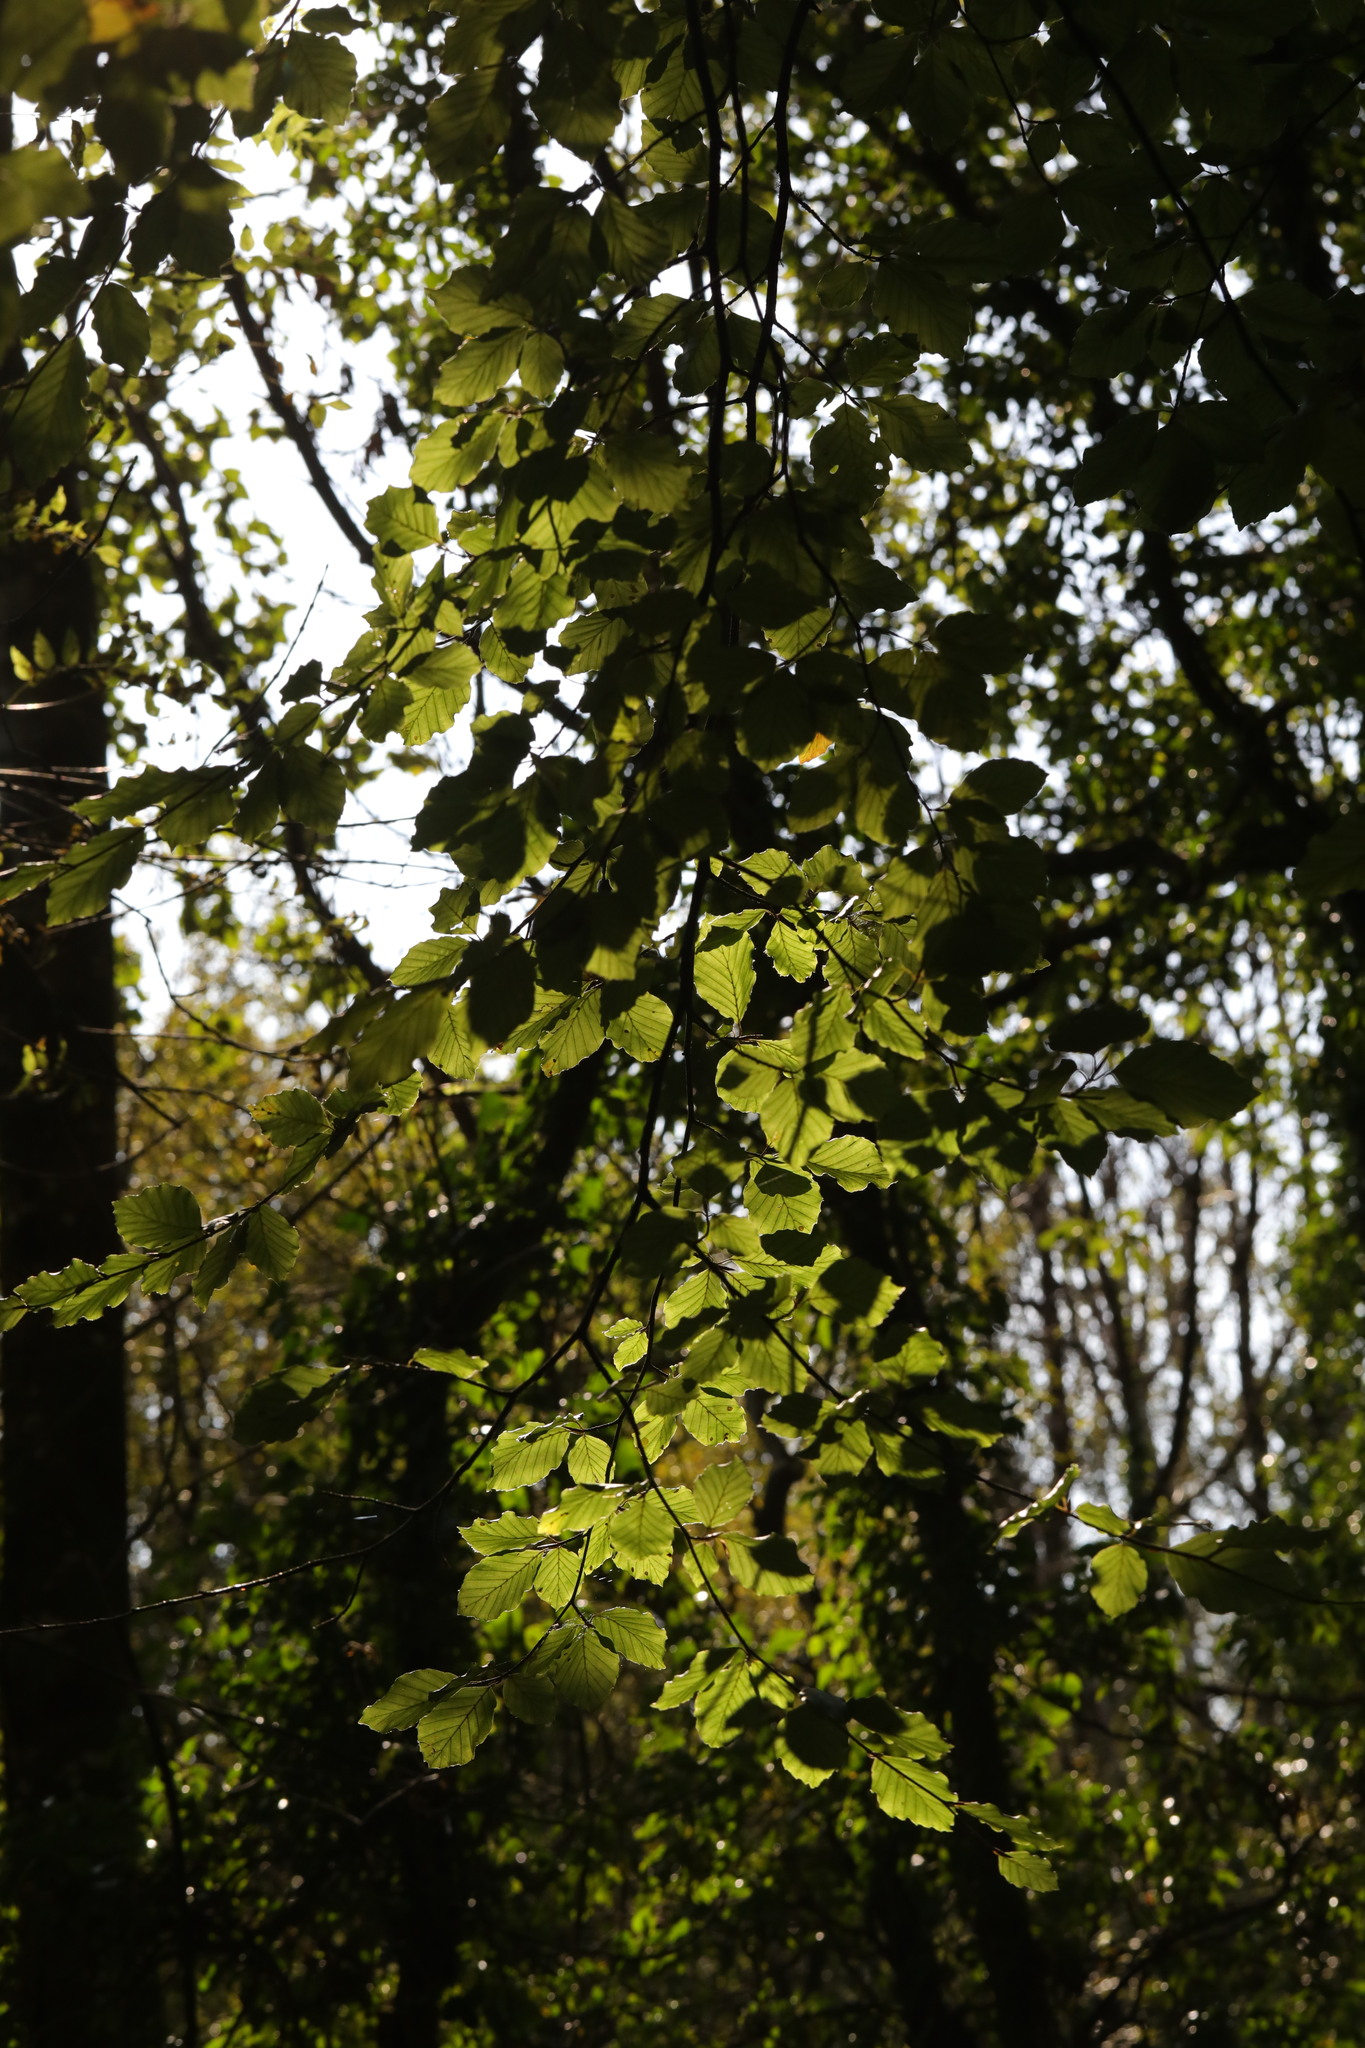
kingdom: Plantae
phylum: Tracheophyta
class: Magnoliopsida
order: Fagales
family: Fagaceae
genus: Fagus
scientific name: Fagus sylvatica
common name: Beech
